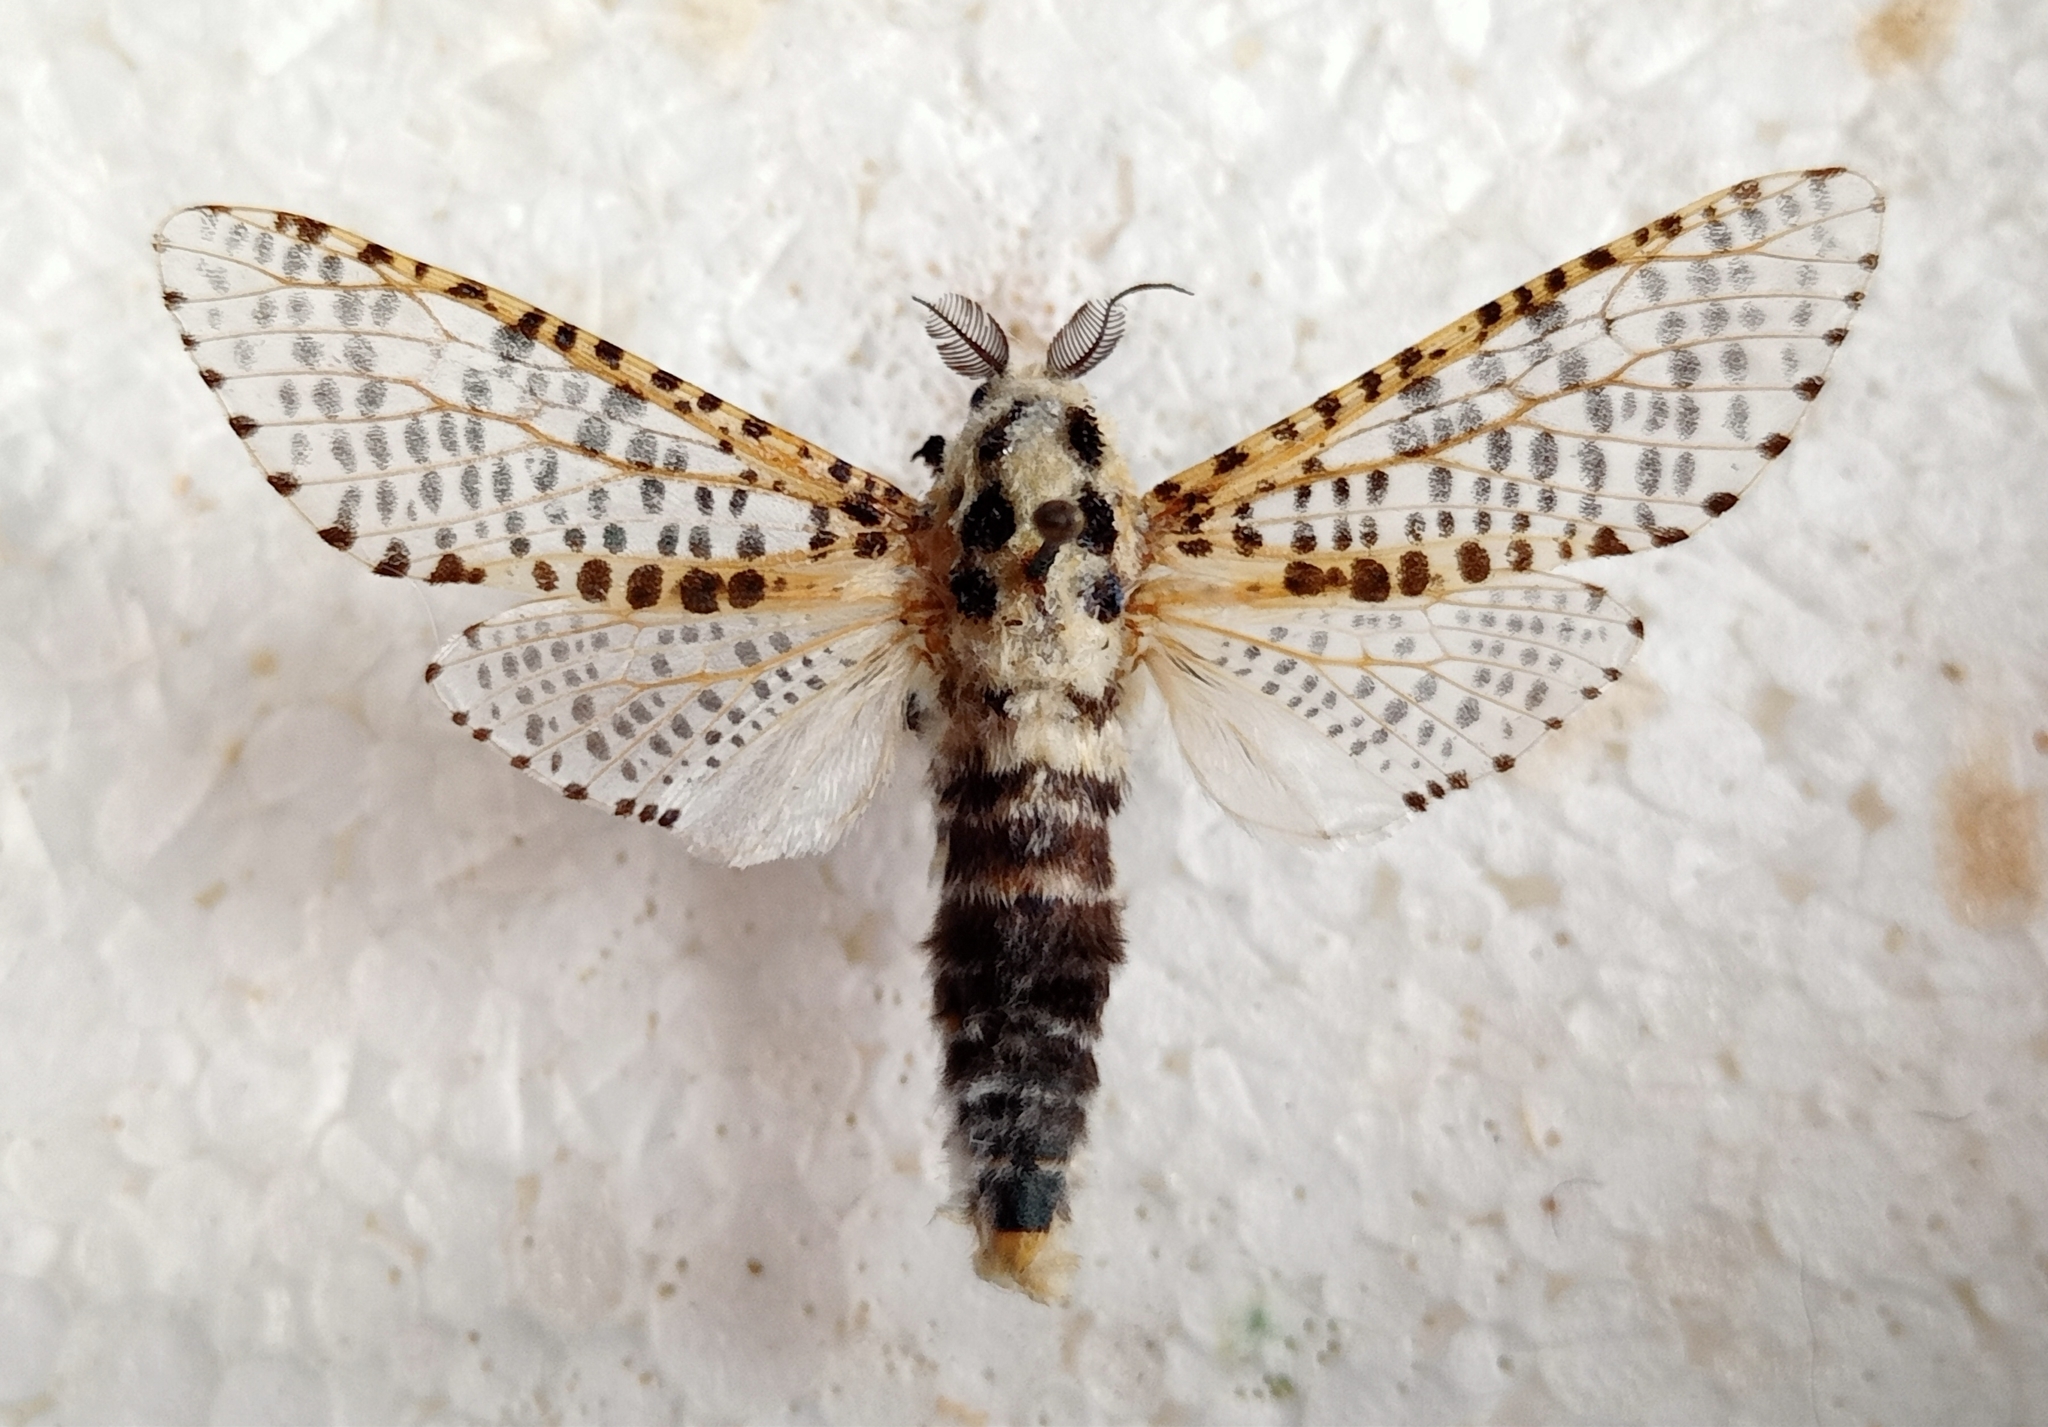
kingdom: Animalia
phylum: Arthropoda
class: Insecta
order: Lepidoptera
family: Cossidae
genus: Zeuzera
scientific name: Zeuzera pyrina
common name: Leopard moth
